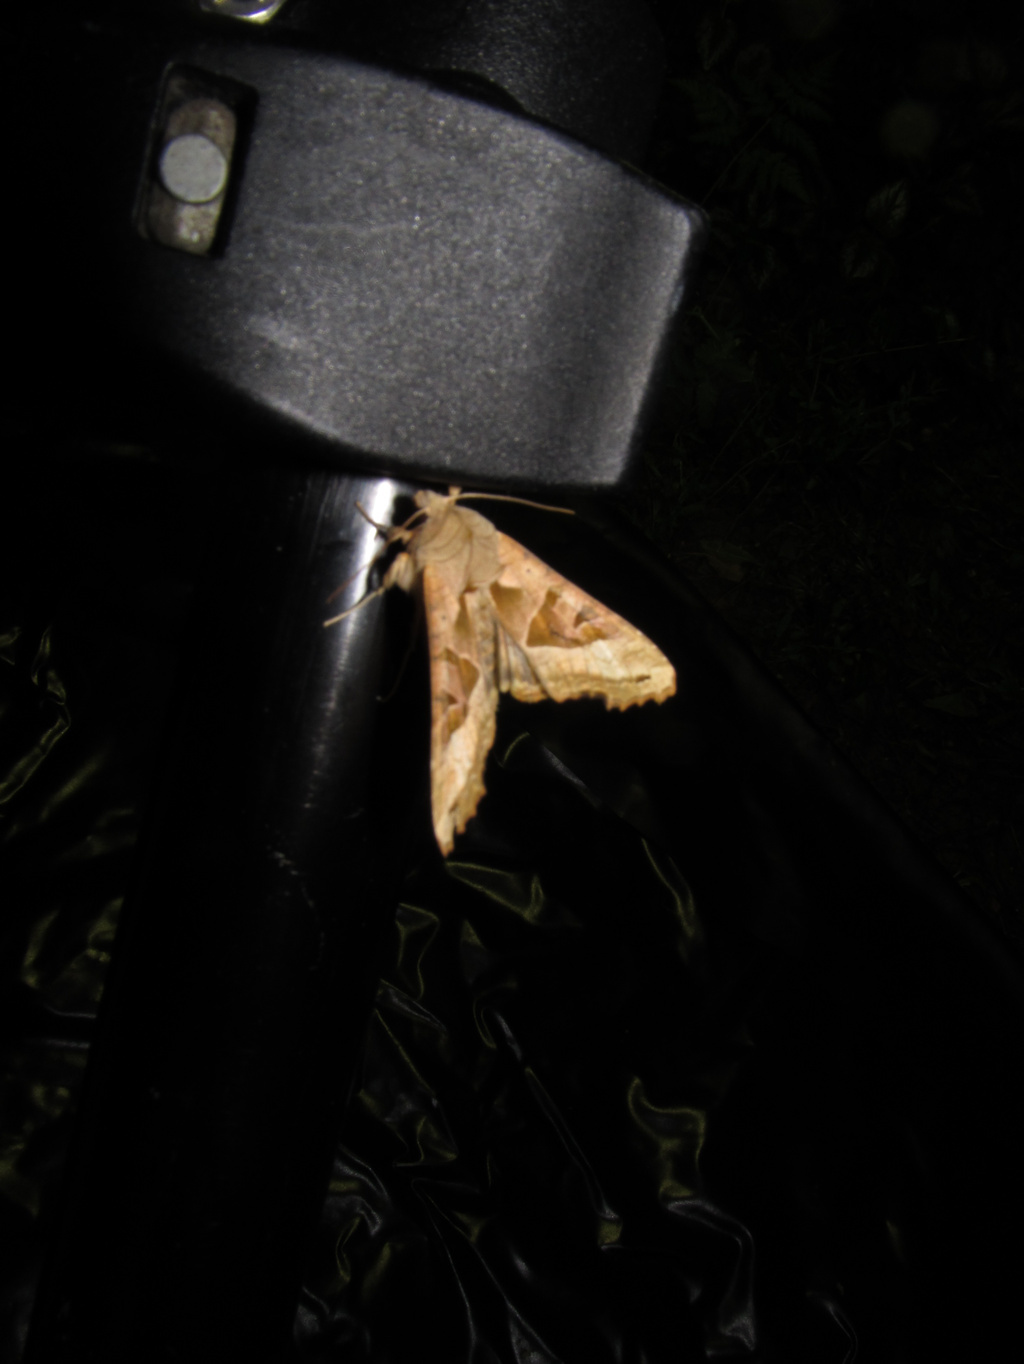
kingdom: Animalia
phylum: Arthropoda
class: Insecta
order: Lepidoptera
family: Noctuidae
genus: Phlogophora
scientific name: Phlogophora meticulosa
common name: Angle shades
